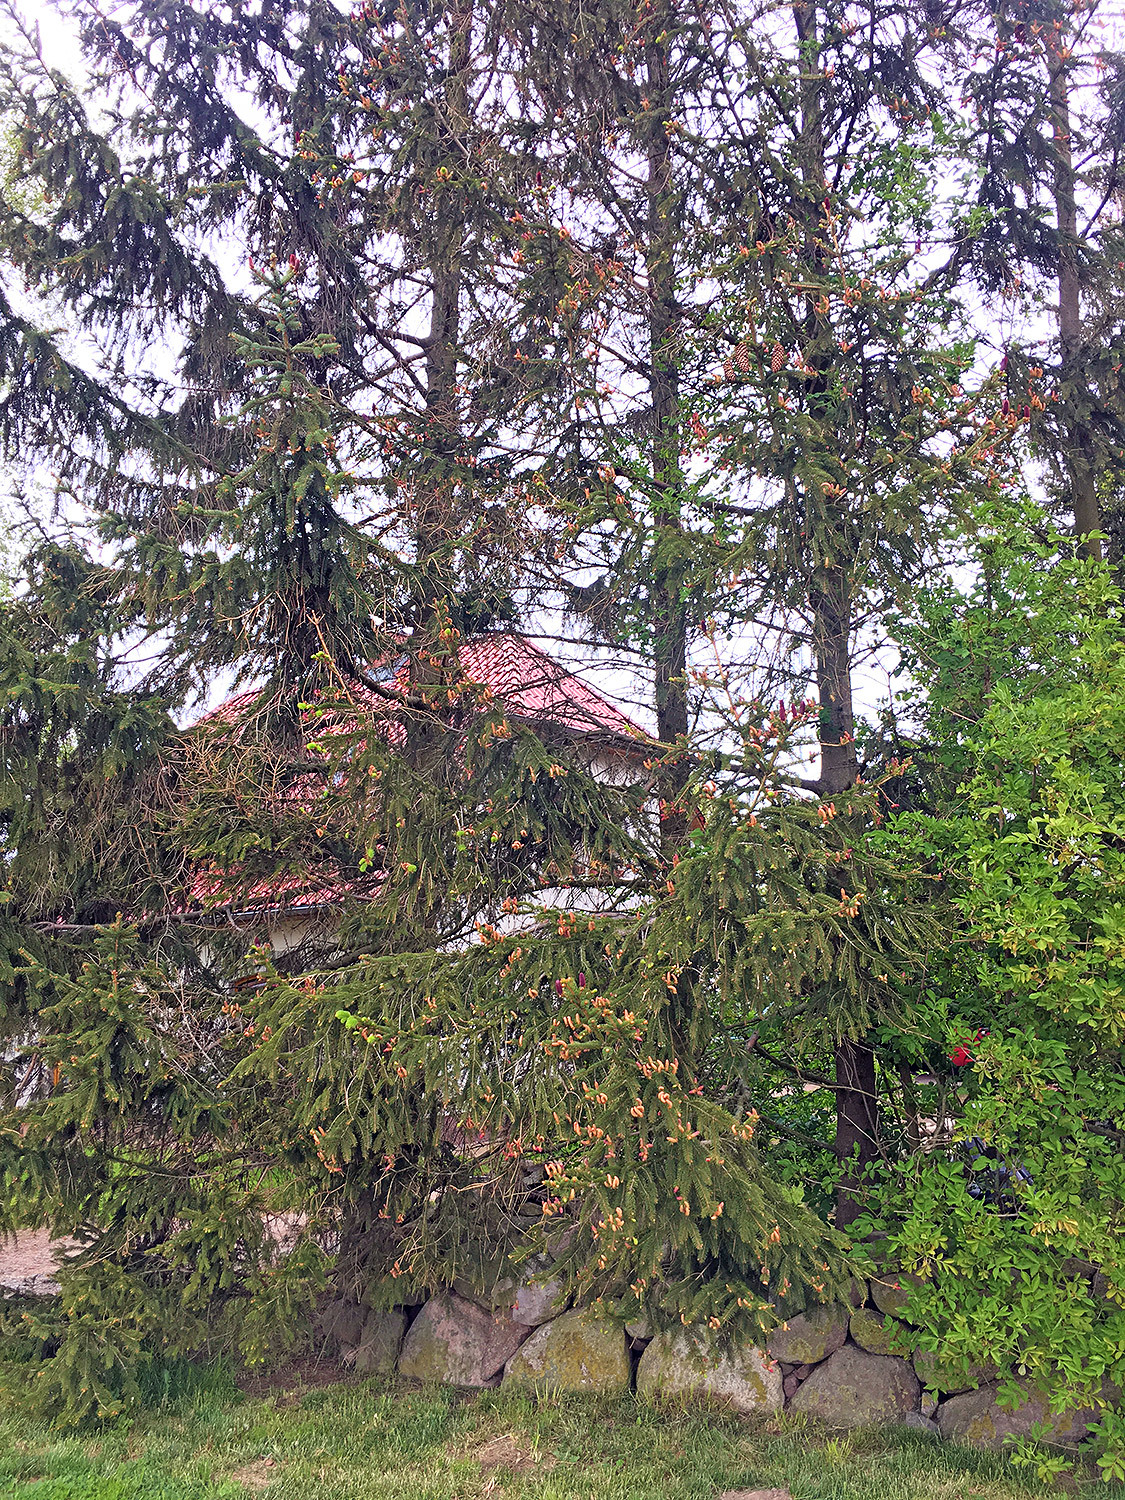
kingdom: Plantae
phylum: Tracheophyta
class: Pinopsida
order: Pinales
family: Pinaceae
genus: Picea
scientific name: Picea abies
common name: Norway spruce
